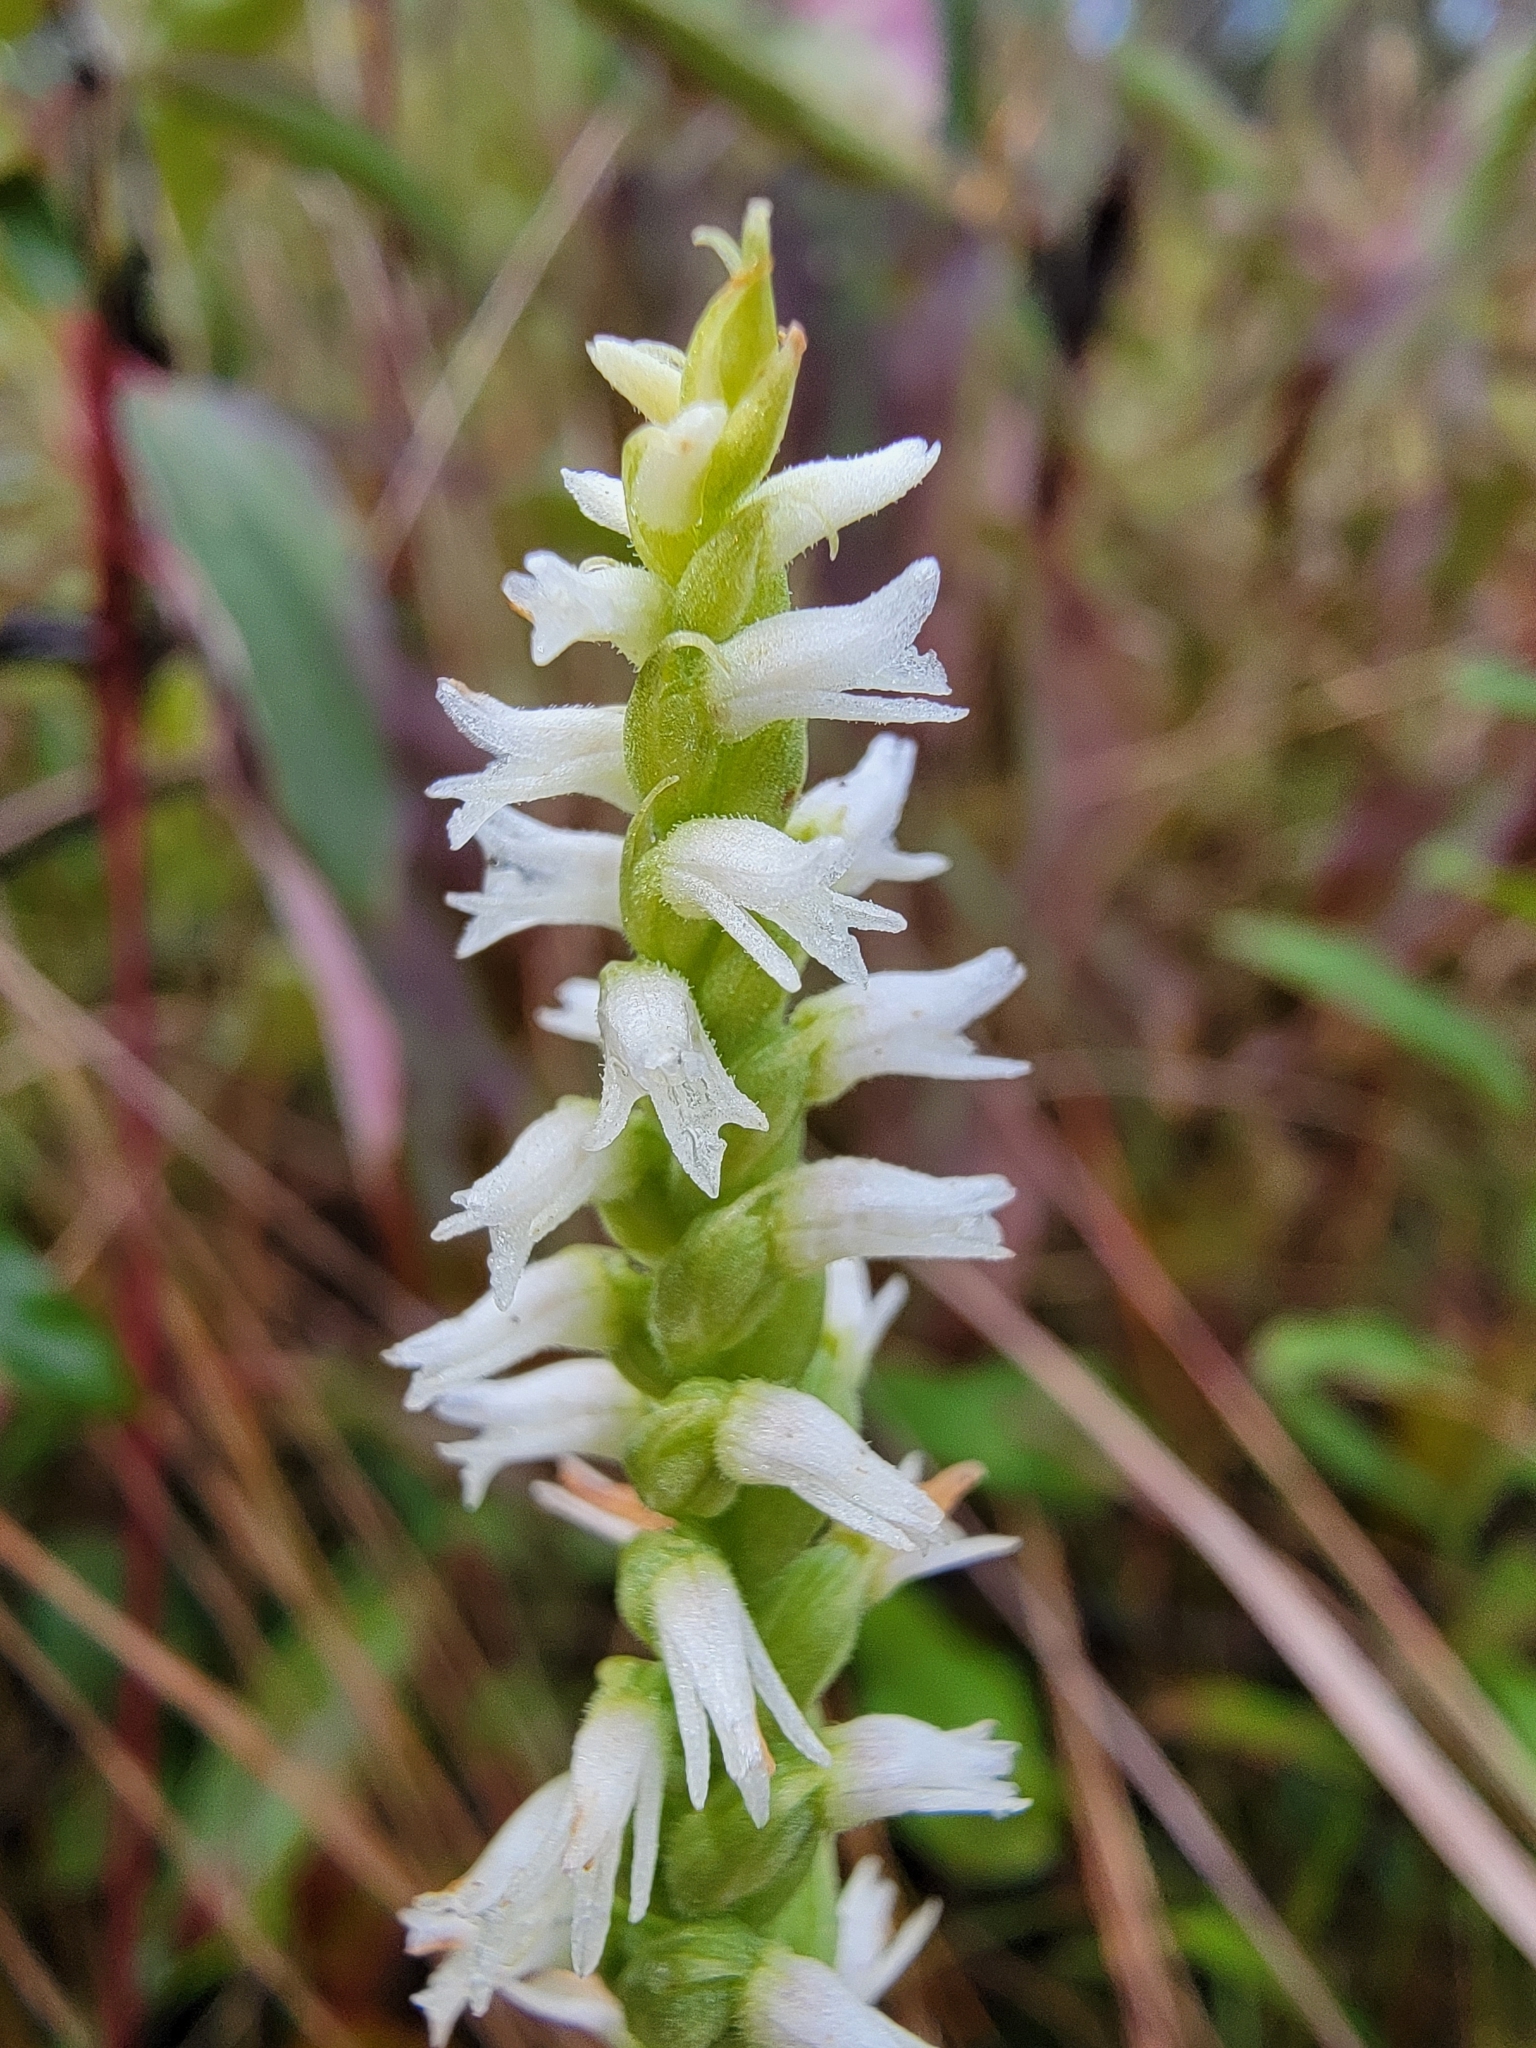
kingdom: Plantae
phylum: Tracheophyta
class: Liliopsida
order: Asparagales
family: Orchidaceae
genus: Spiranthes
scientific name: Spiranthes ovalis
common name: October ladies'-tresses
